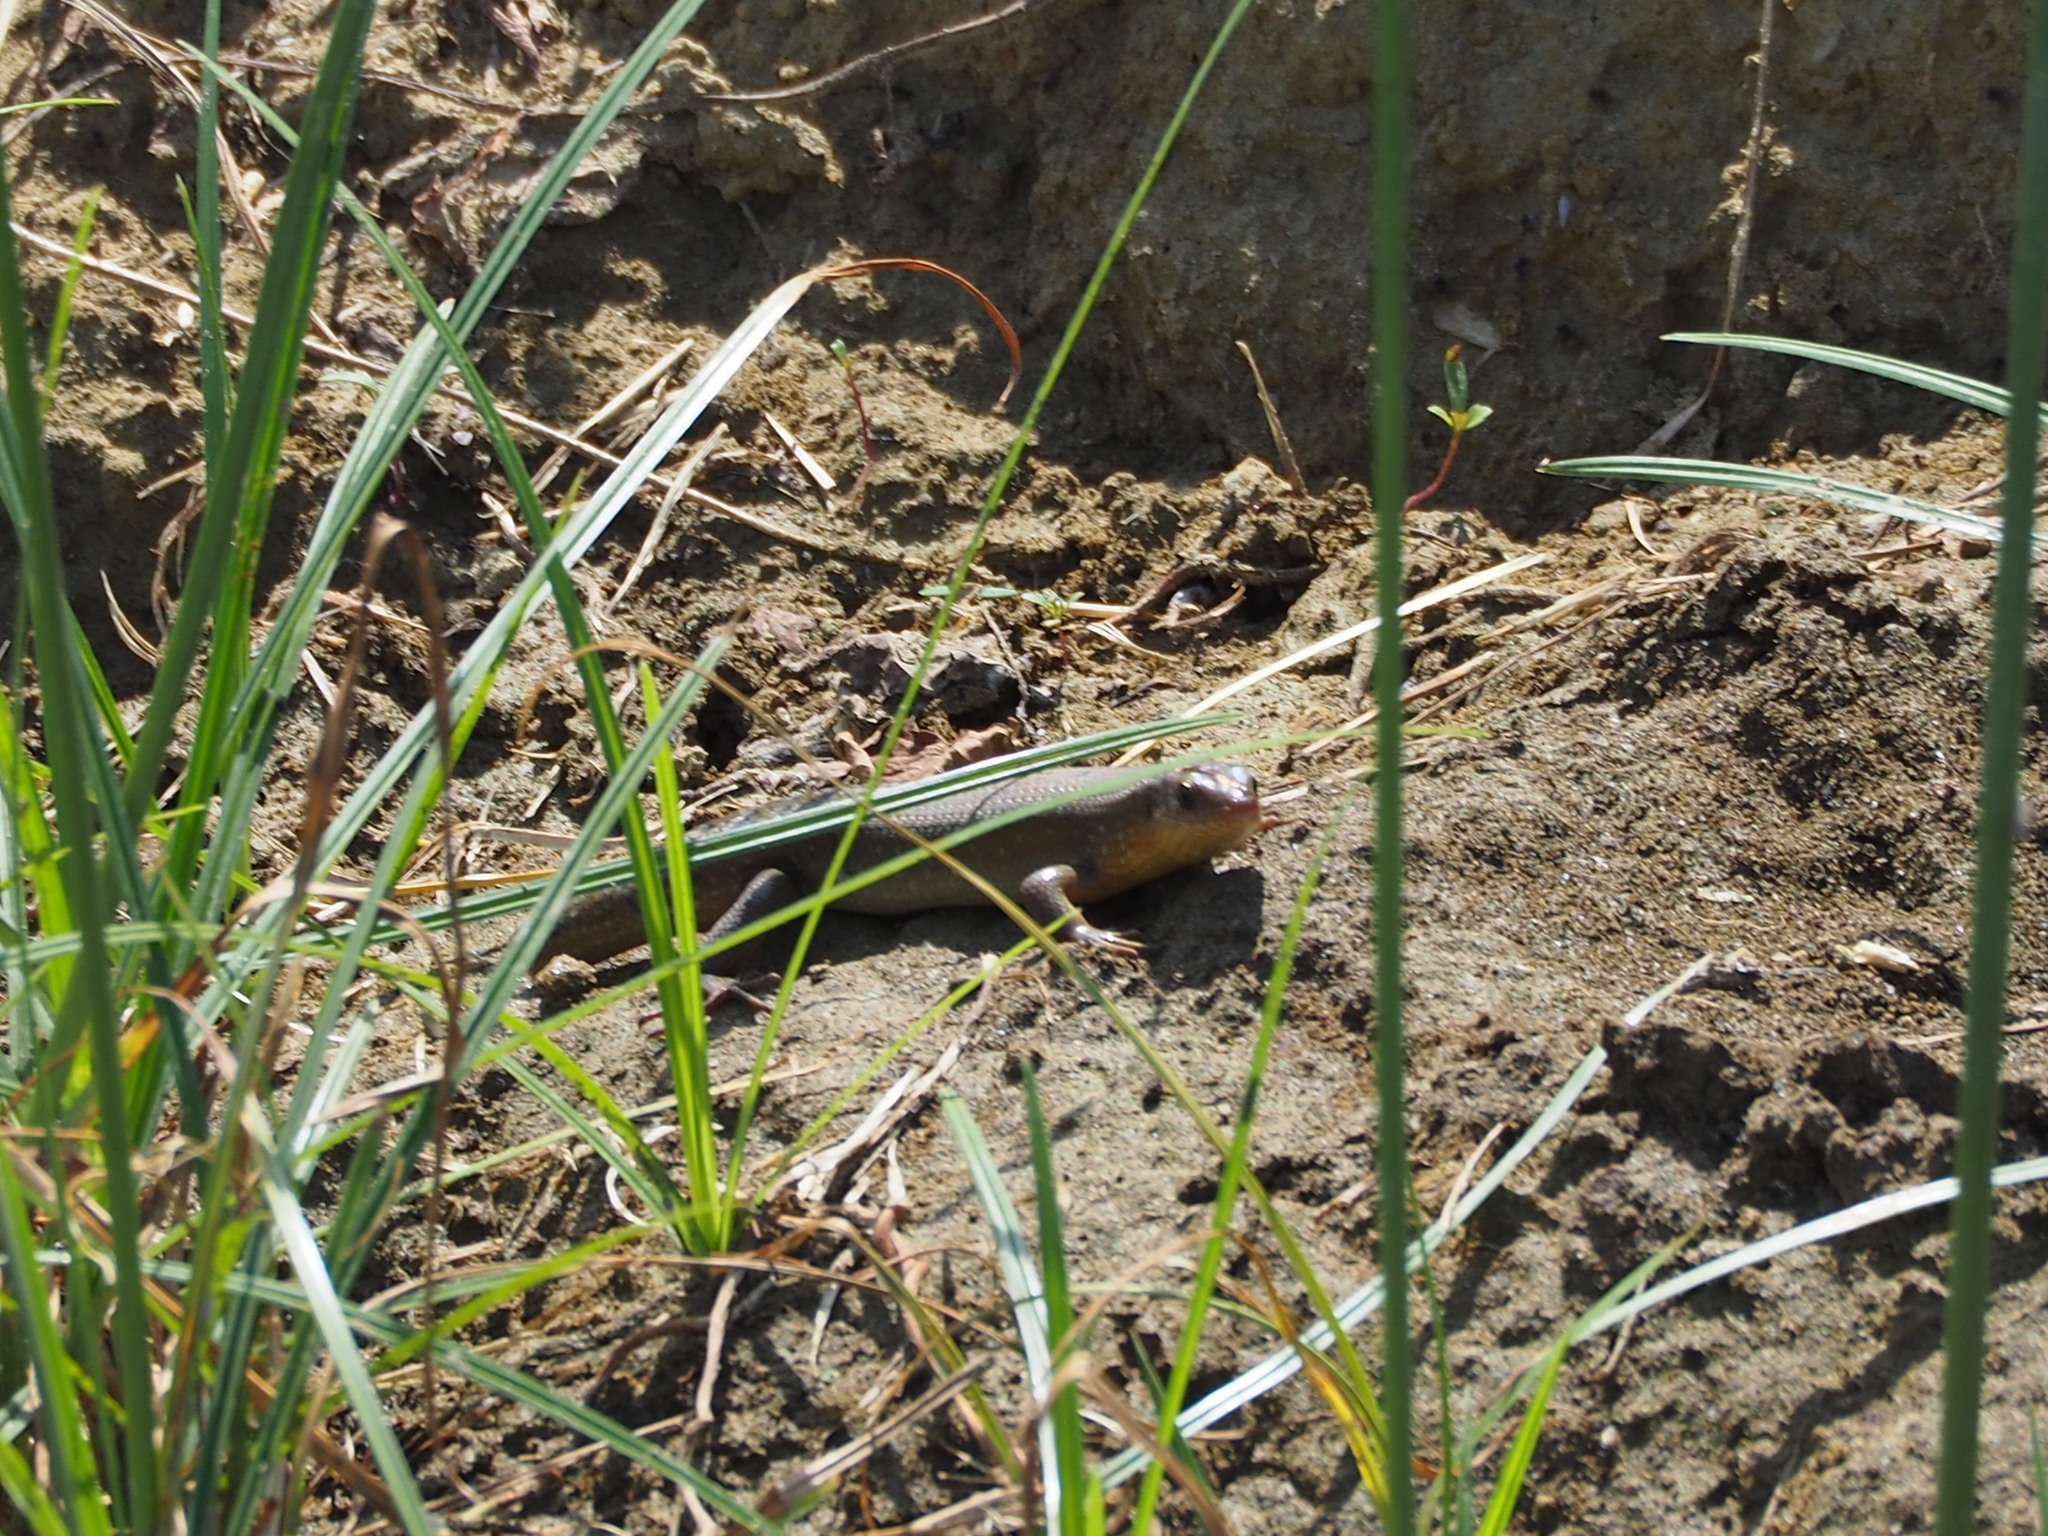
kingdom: Animalia
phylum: Chordata
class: Squamata
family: Scincidae
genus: Eutropis
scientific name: Eutropis multifasciata
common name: Common mabuya
